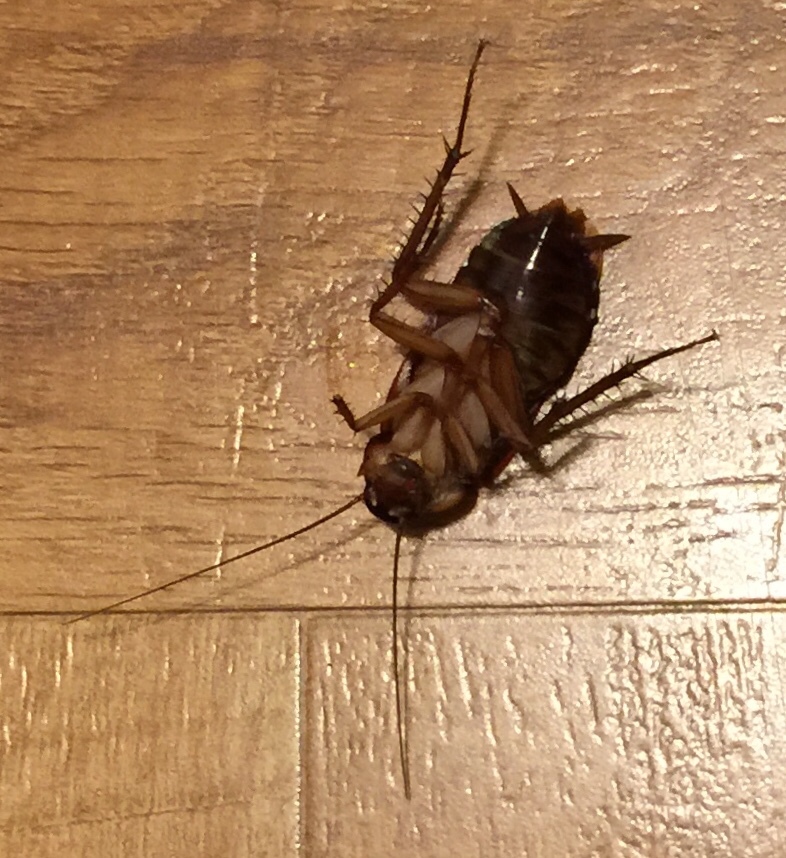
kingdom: Animalia
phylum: Arthropoda
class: Insecta
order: Blattodea
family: Blattidae
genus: Periplaneta
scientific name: Periplaneta americana
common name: American cockroach
